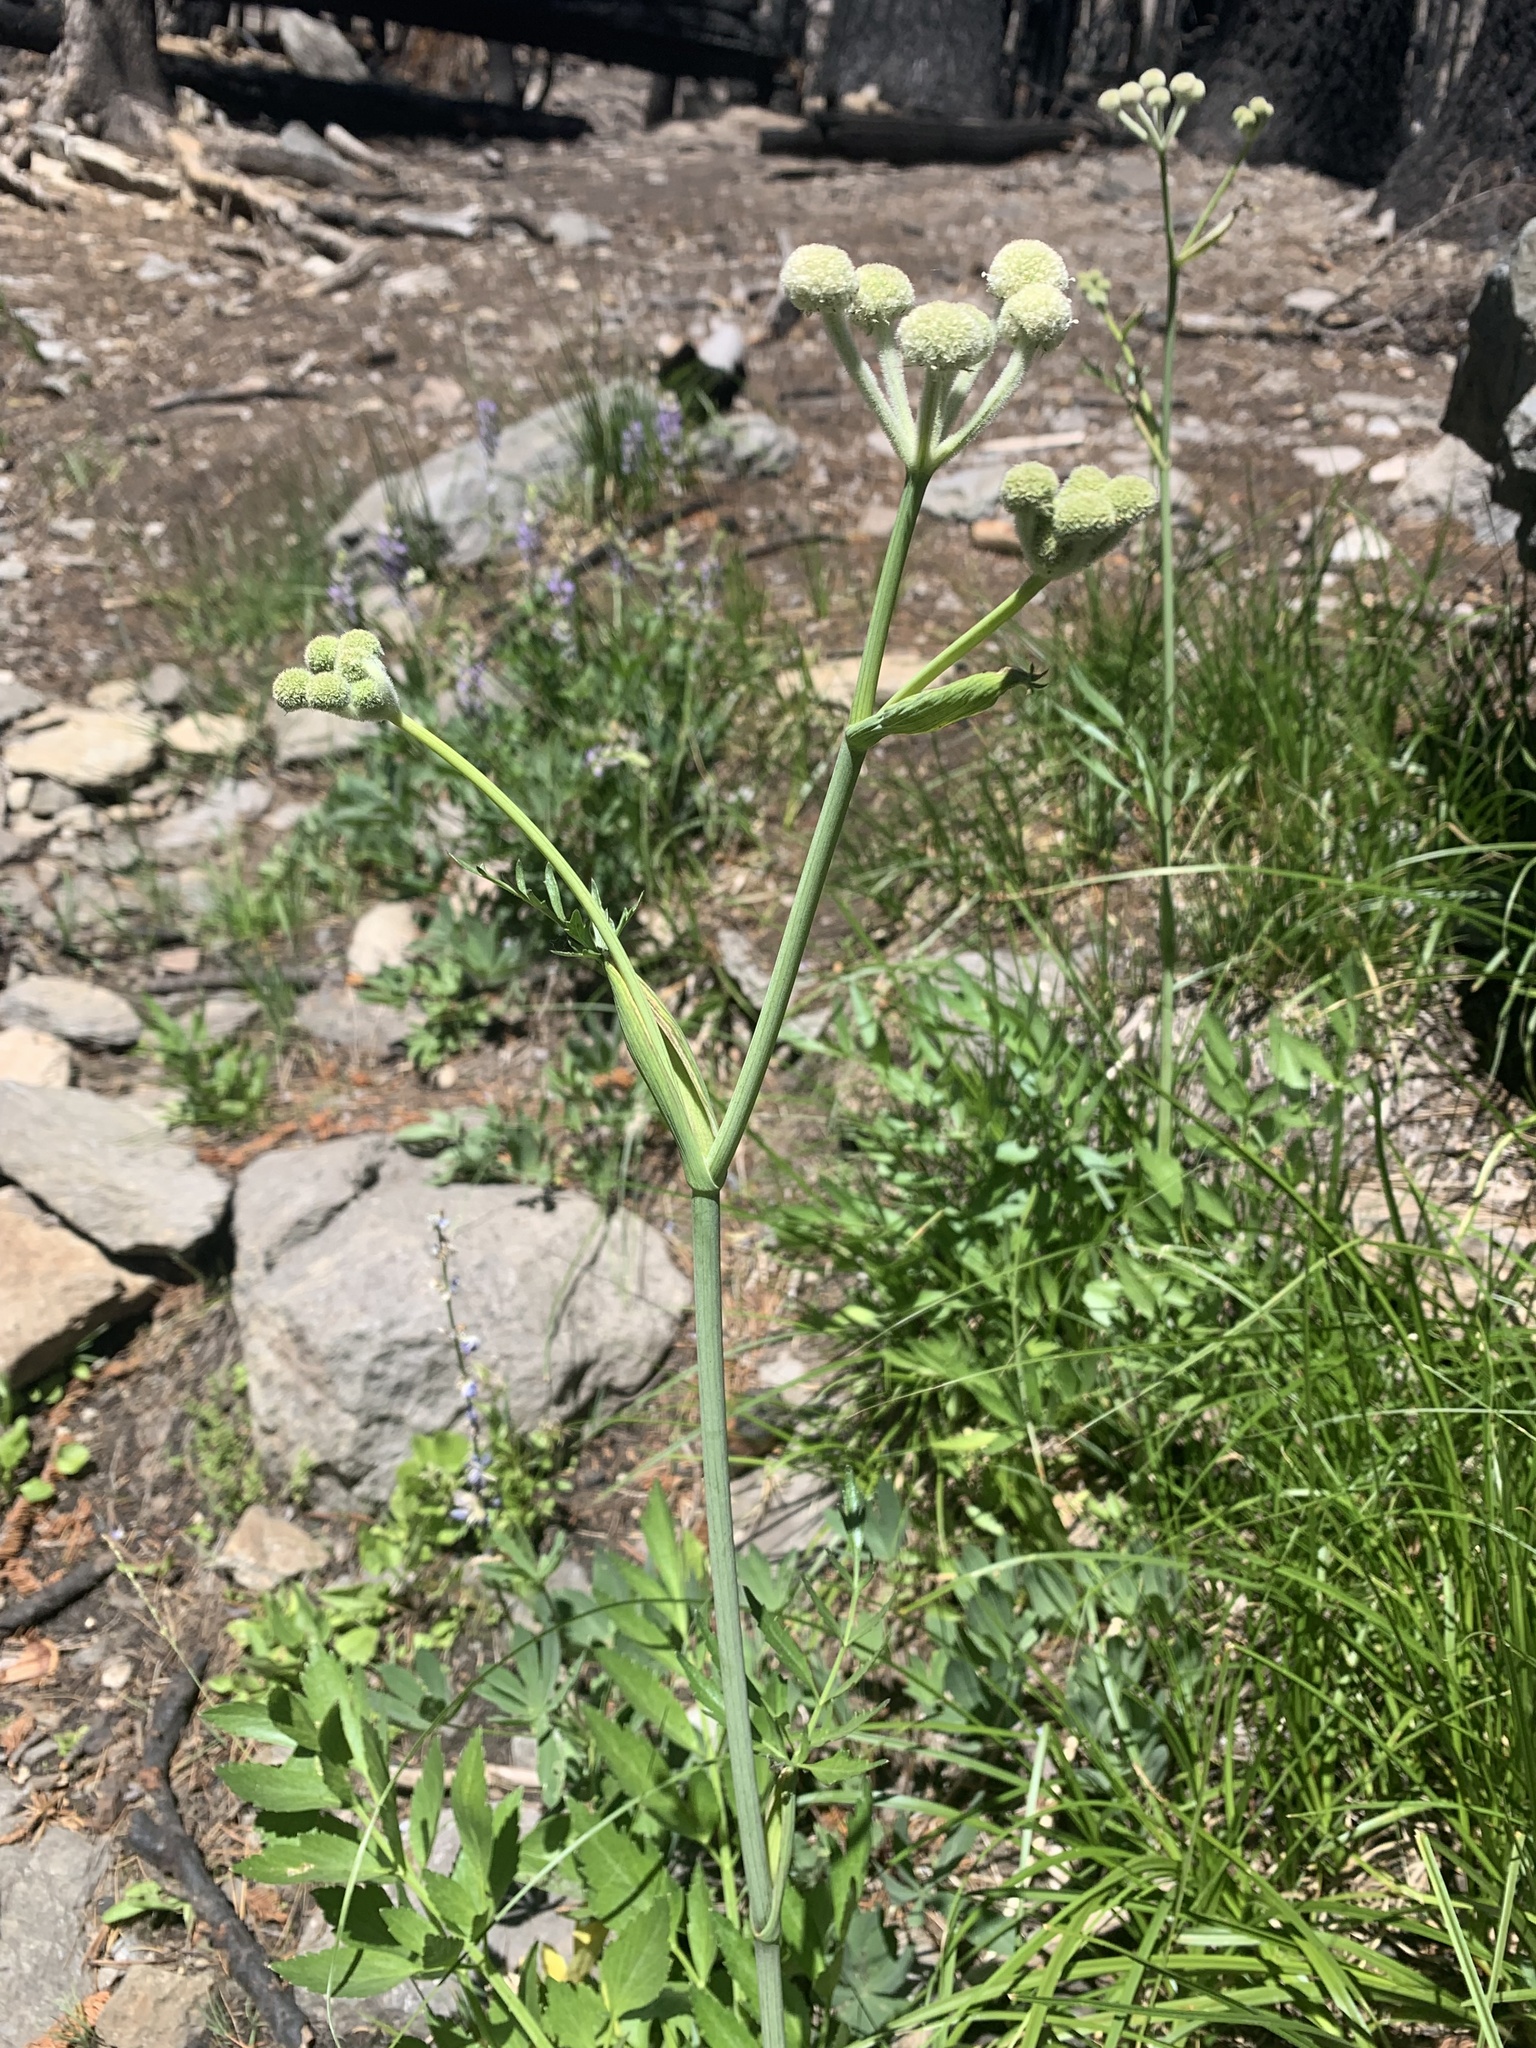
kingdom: Plantae
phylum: Tracheophyta
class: Magnoliopsida
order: Apiales
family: Apiaceae
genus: Angelica
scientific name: Angelica capitellata
